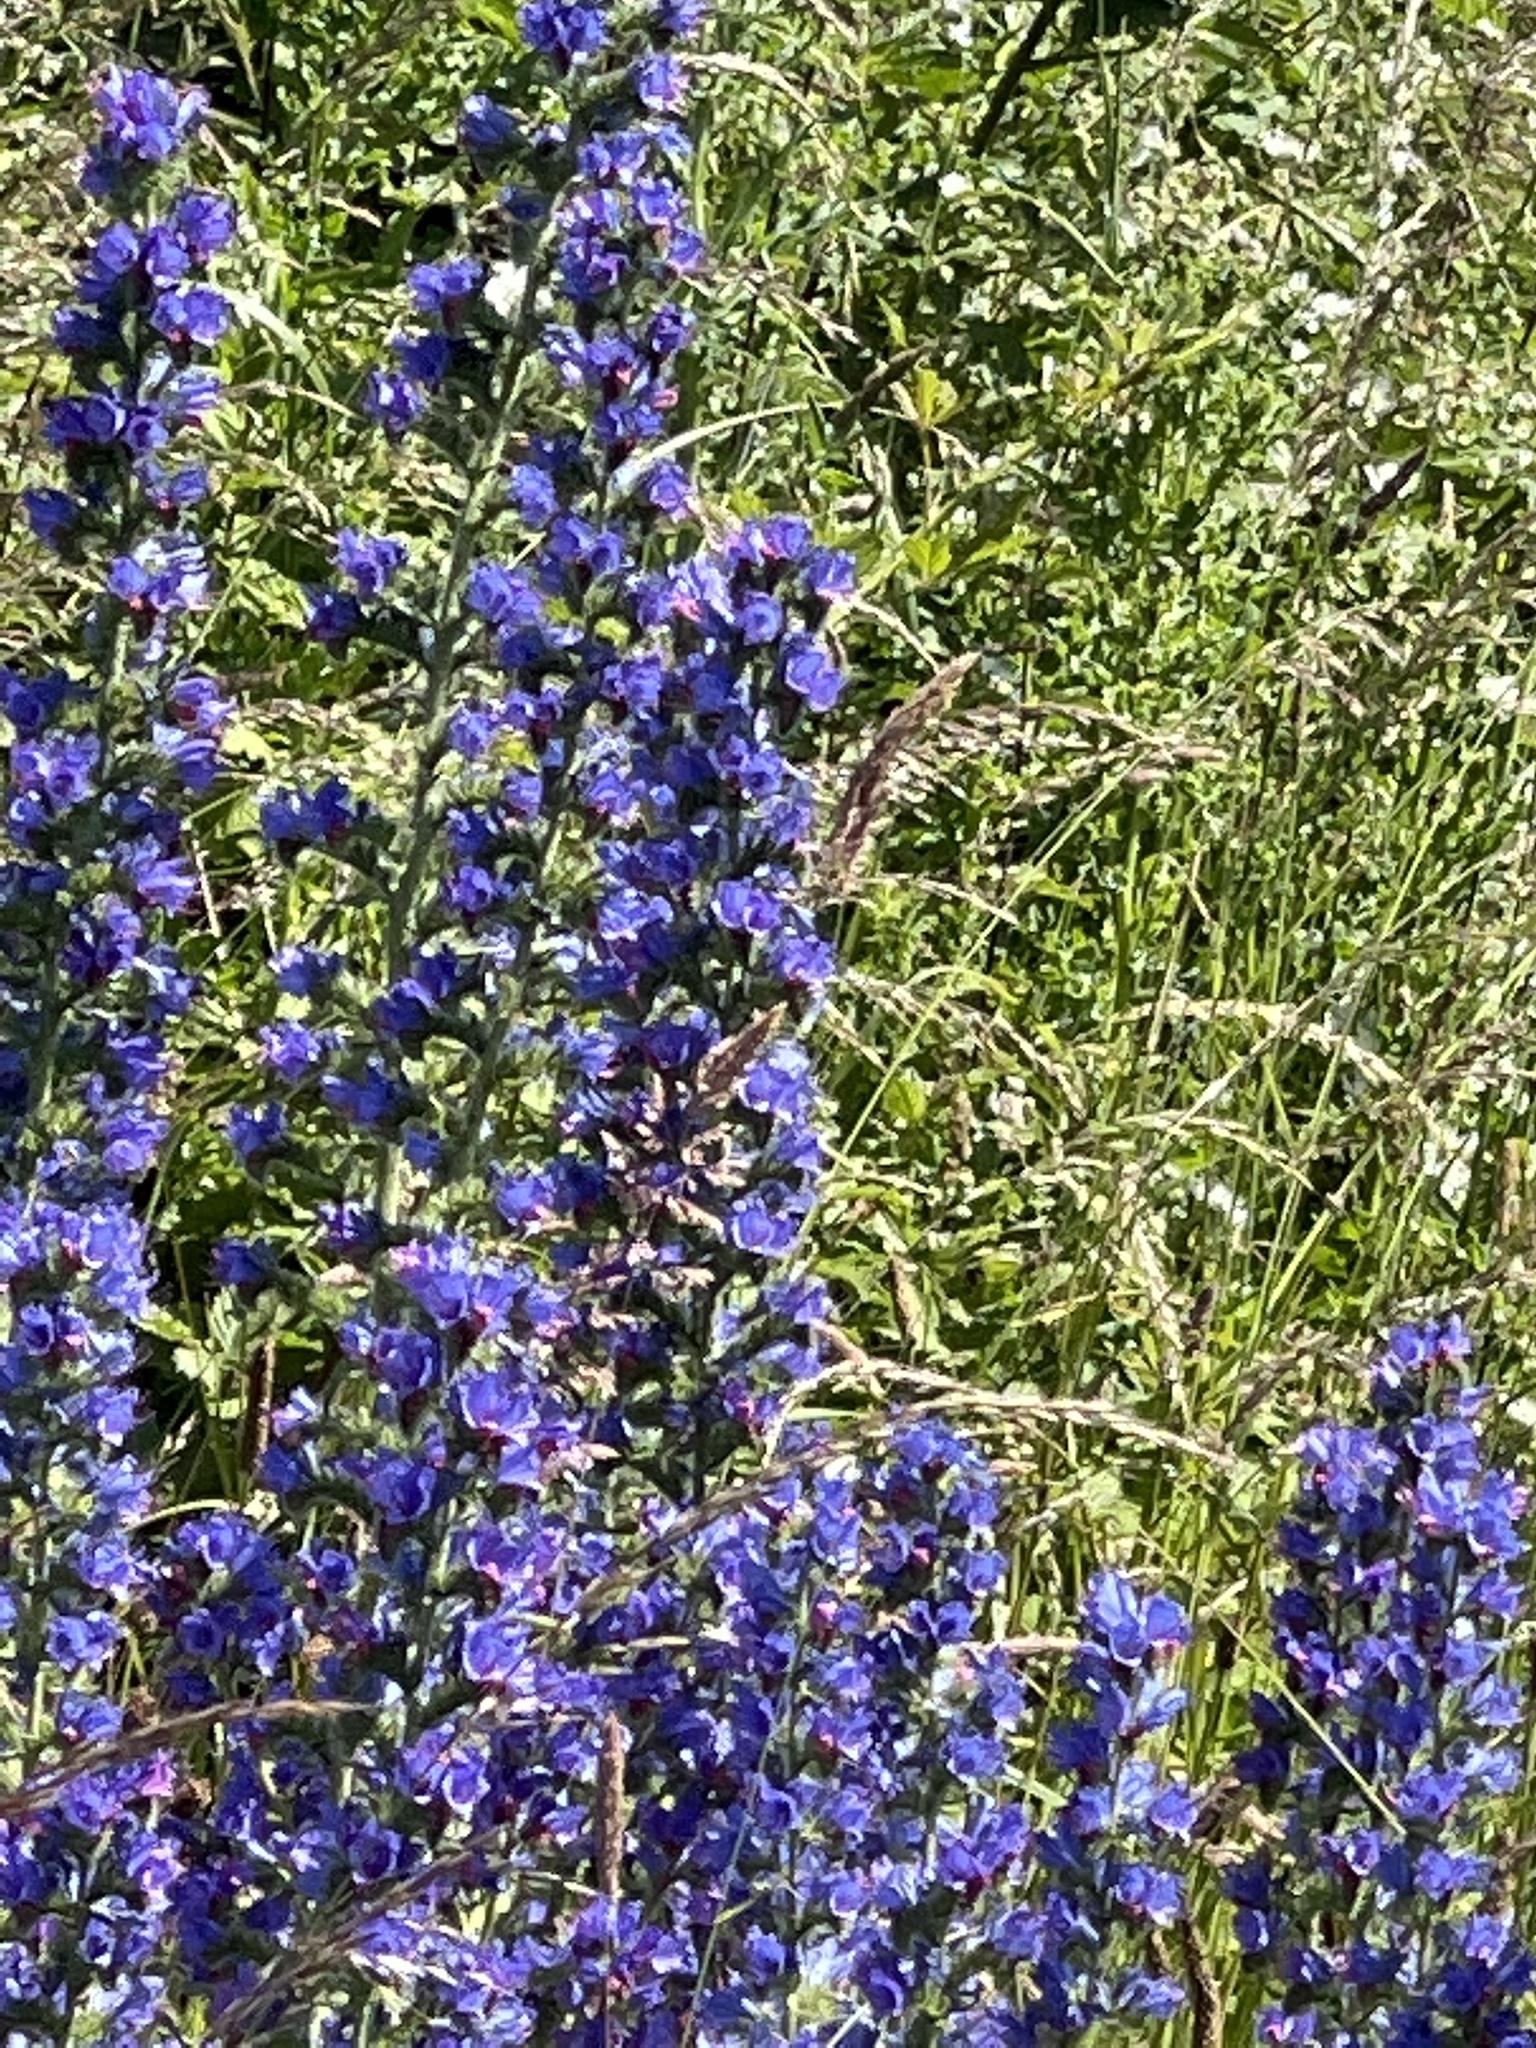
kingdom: Plantae
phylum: Tracheophyta
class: Magnoliopsida
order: Boraginales
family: Boraginaceae
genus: Echium
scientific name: Echium vulgare
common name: Common viper's bugloss
